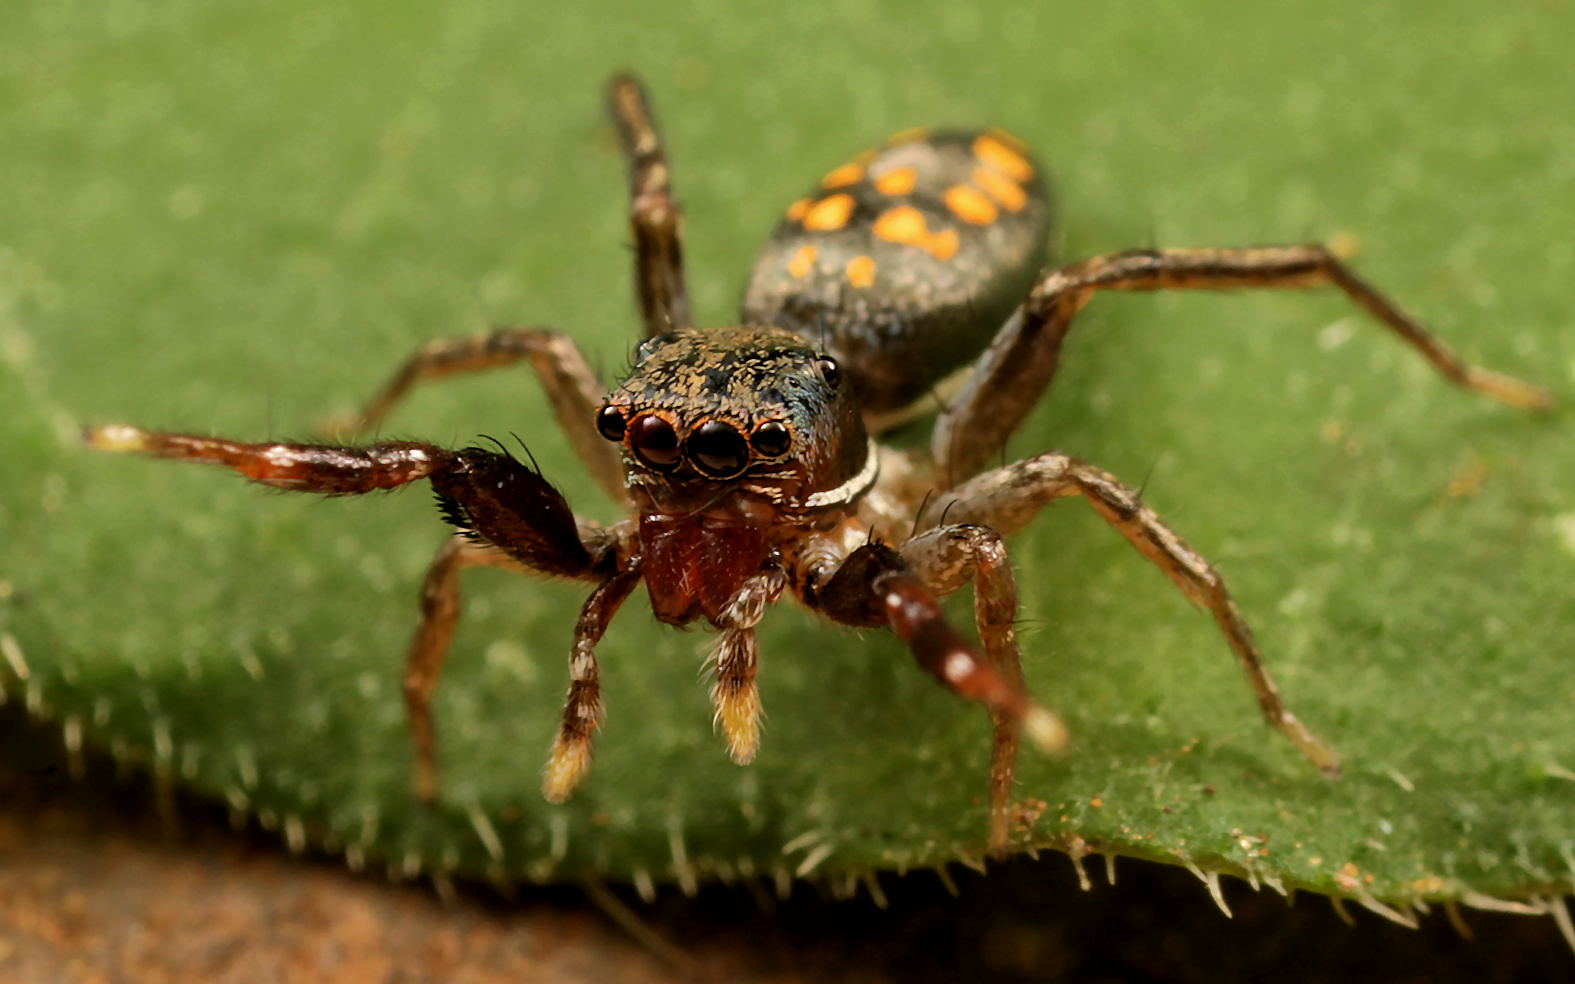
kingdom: Animalia
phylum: Arthropoda
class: Arachnida
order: Araneae
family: Salticidae
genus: Natta
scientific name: Natta horizontalis
